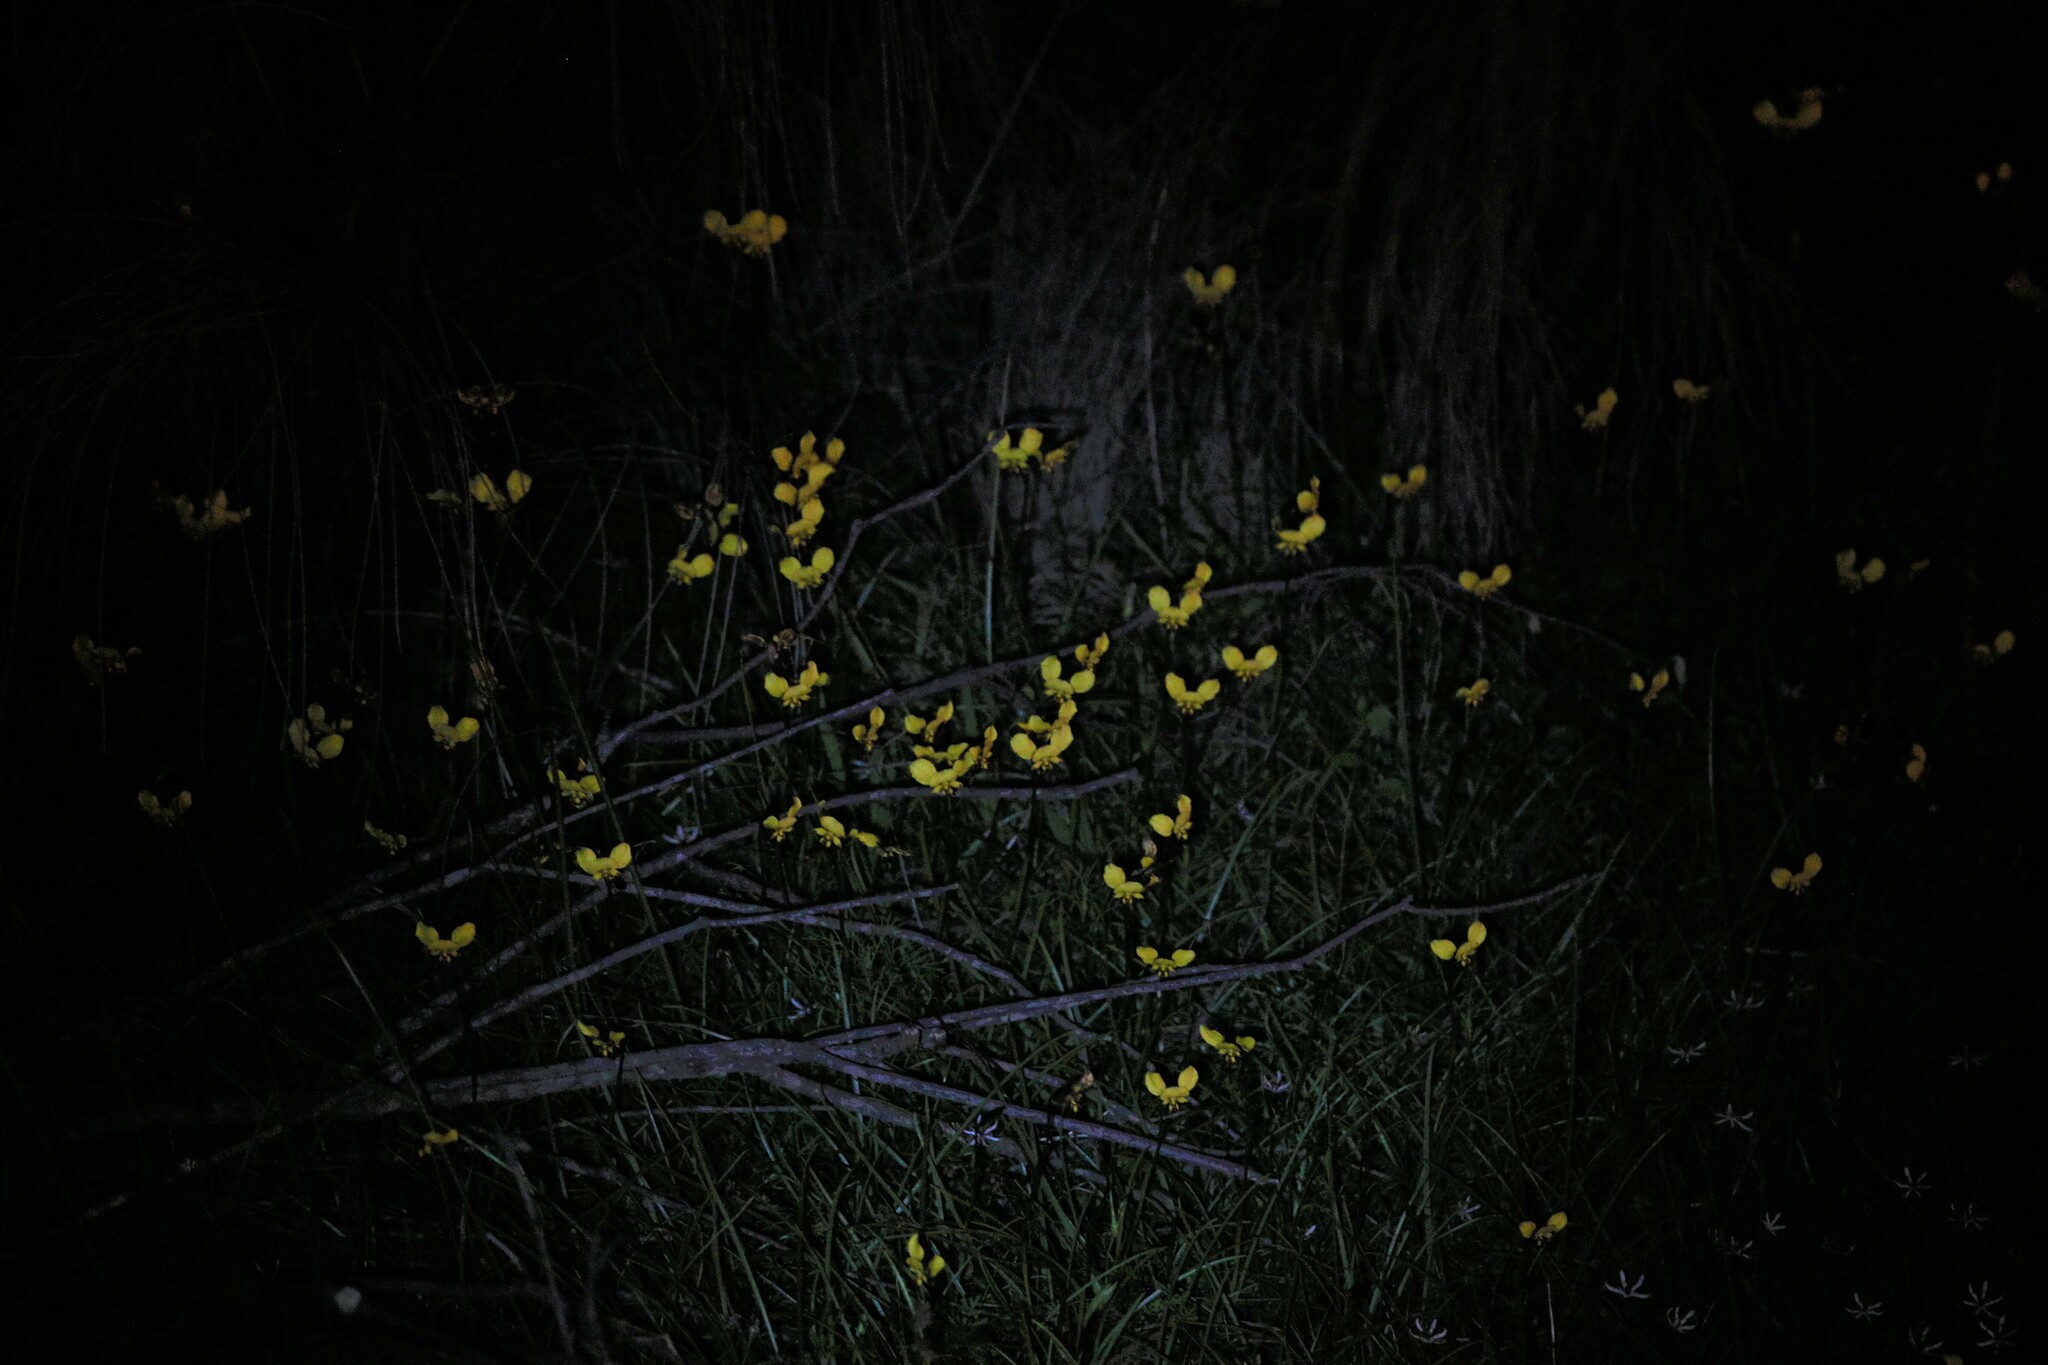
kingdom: Plantae
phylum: Tracheophyta
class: Liliopsida
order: Asparagales
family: Orchidaceae
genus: Diuris
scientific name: Diuris hazeliae
